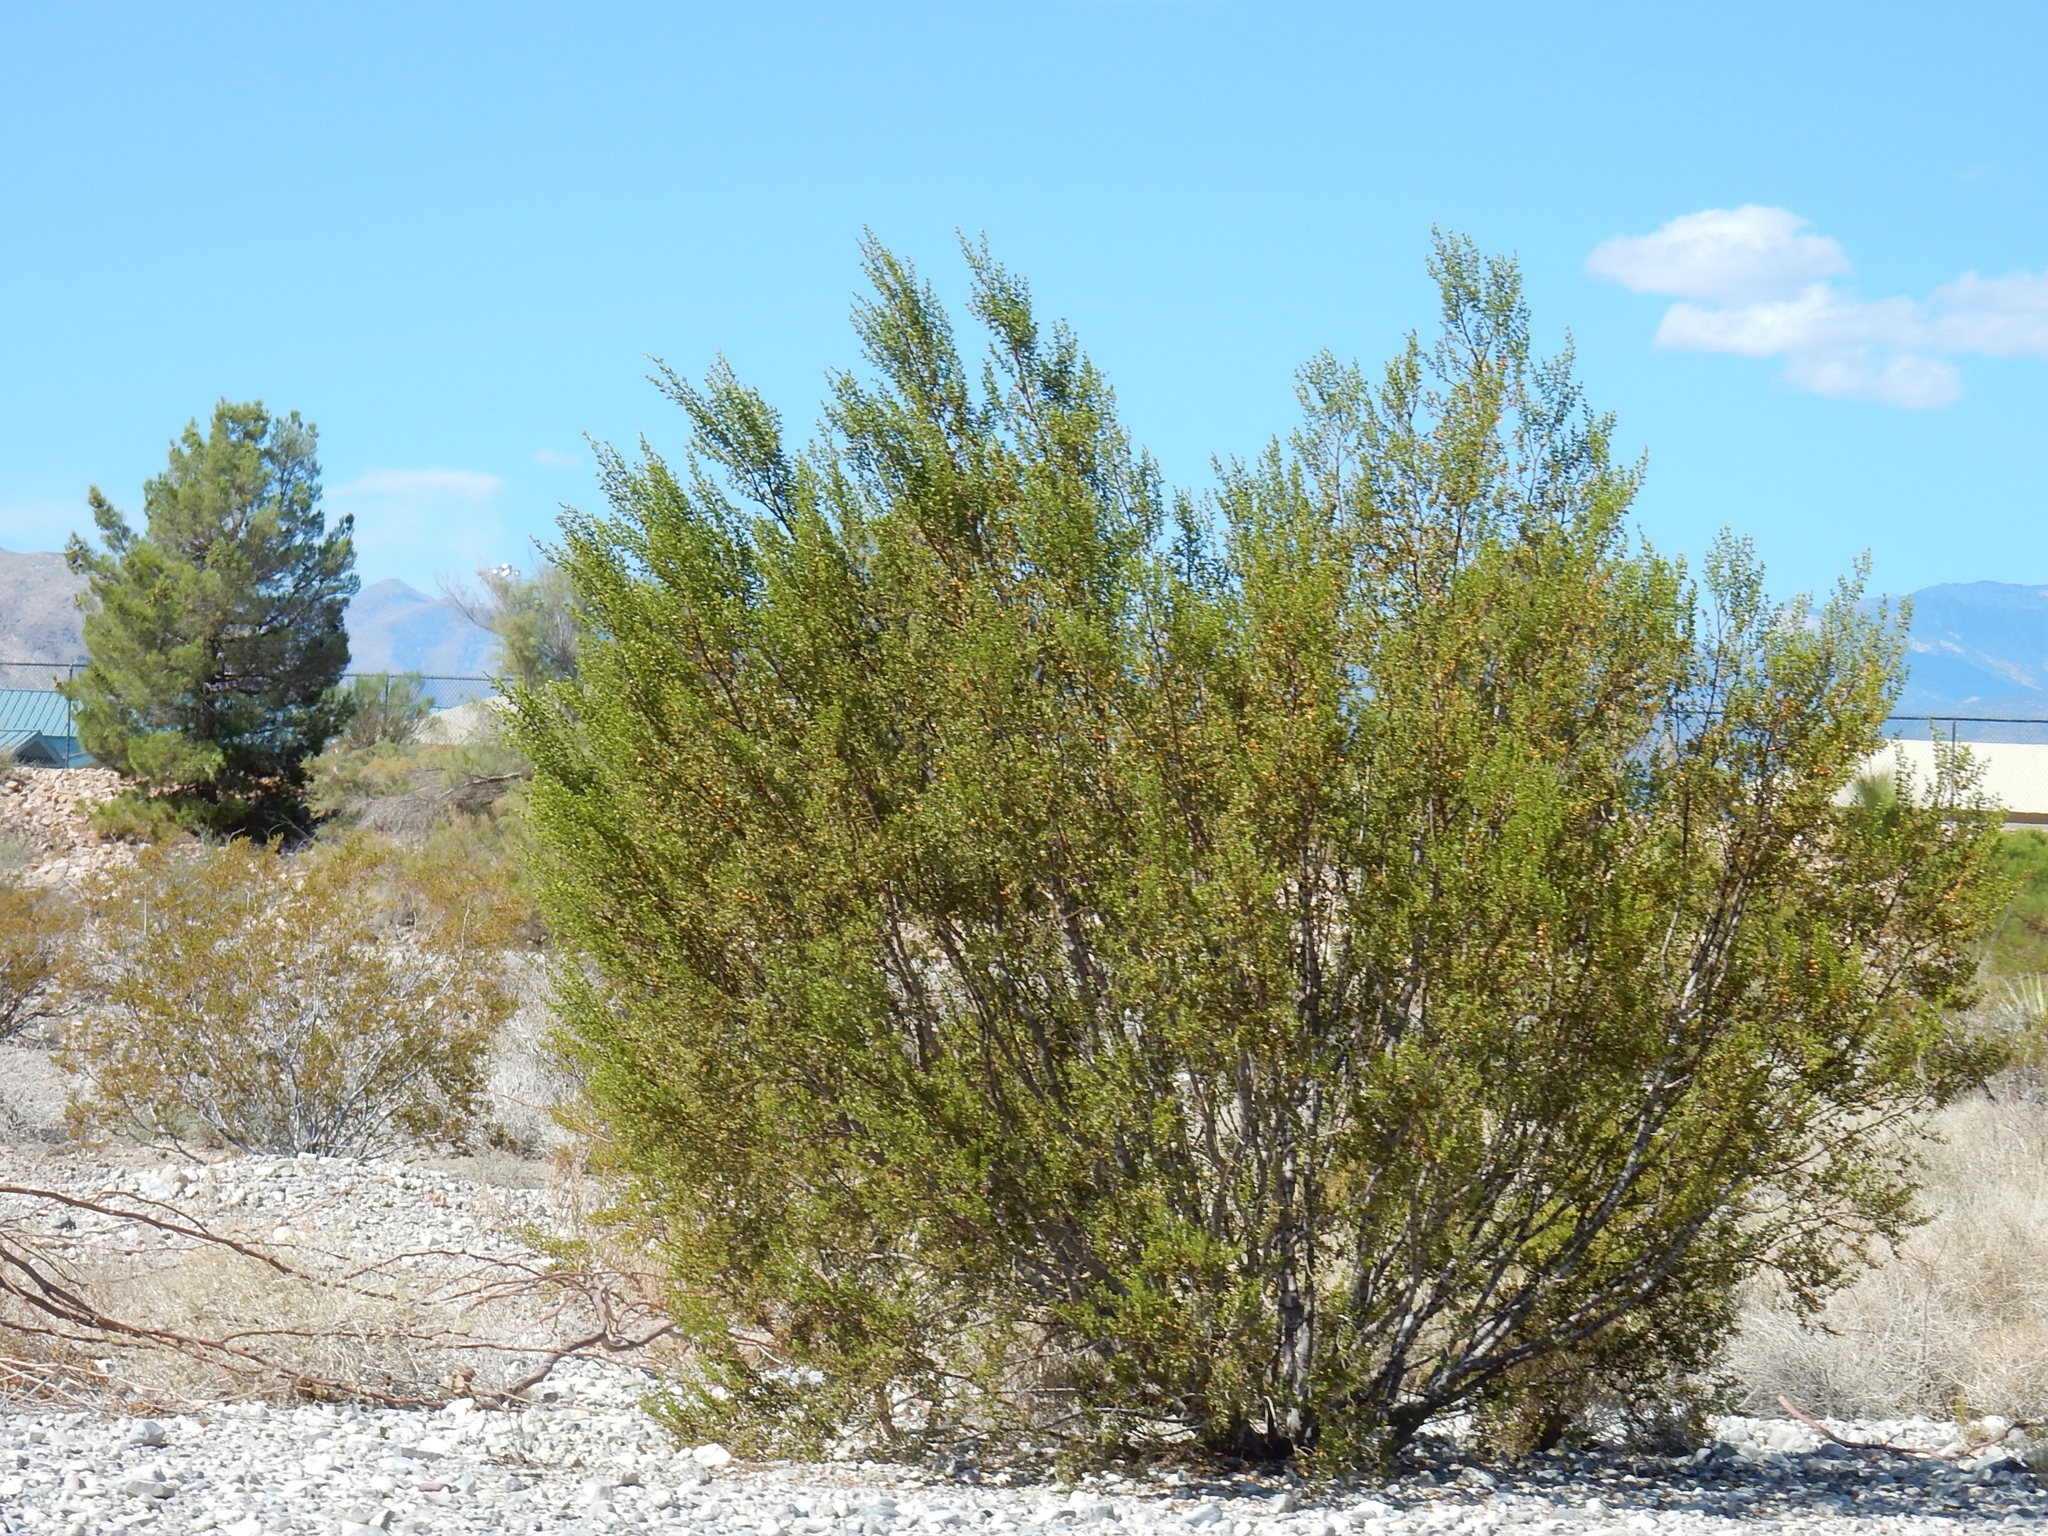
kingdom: Plantae
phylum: Tracheophyta
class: Magnoliopsida
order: Zygophyllales
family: Zygophyllaceae
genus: Larrea
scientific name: Larrea tridentata
